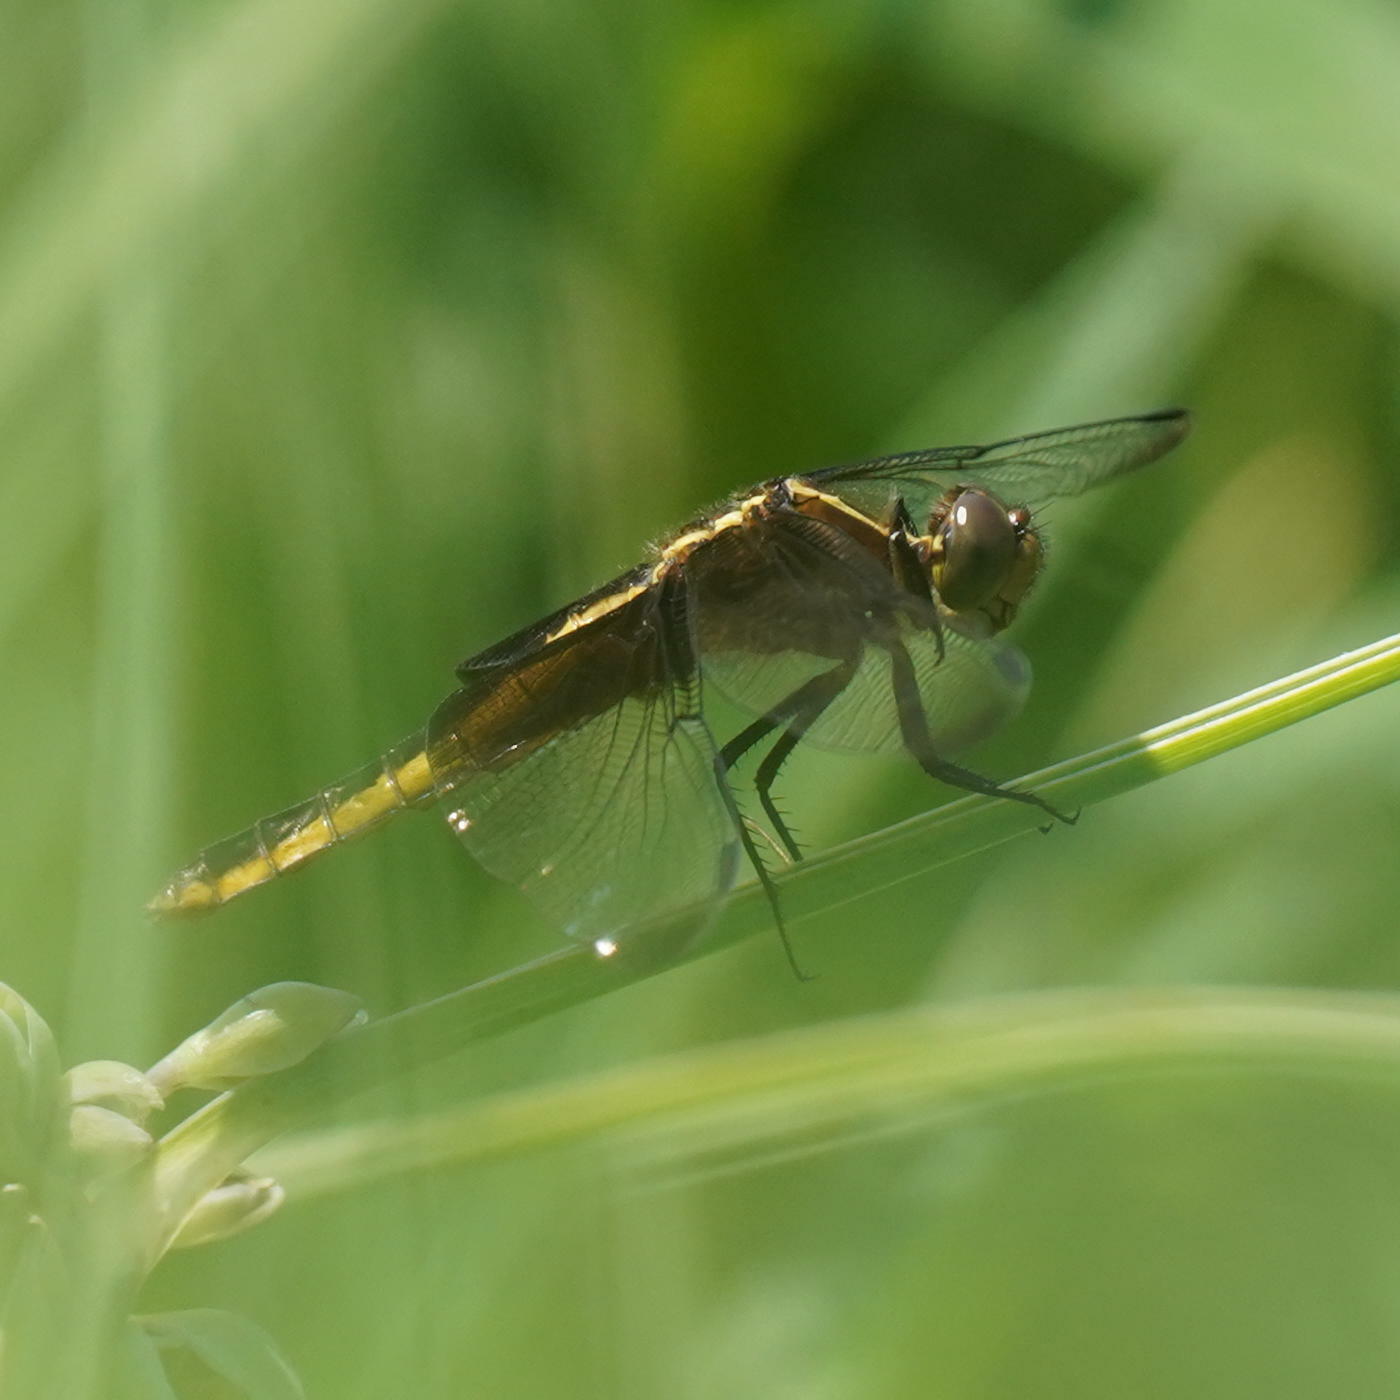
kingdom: Animalia
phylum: Arthropoda
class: Insecta
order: Odonata
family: Libellulidae
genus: Libellula
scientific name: Libellula luctuosa
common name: Widow skimmer
